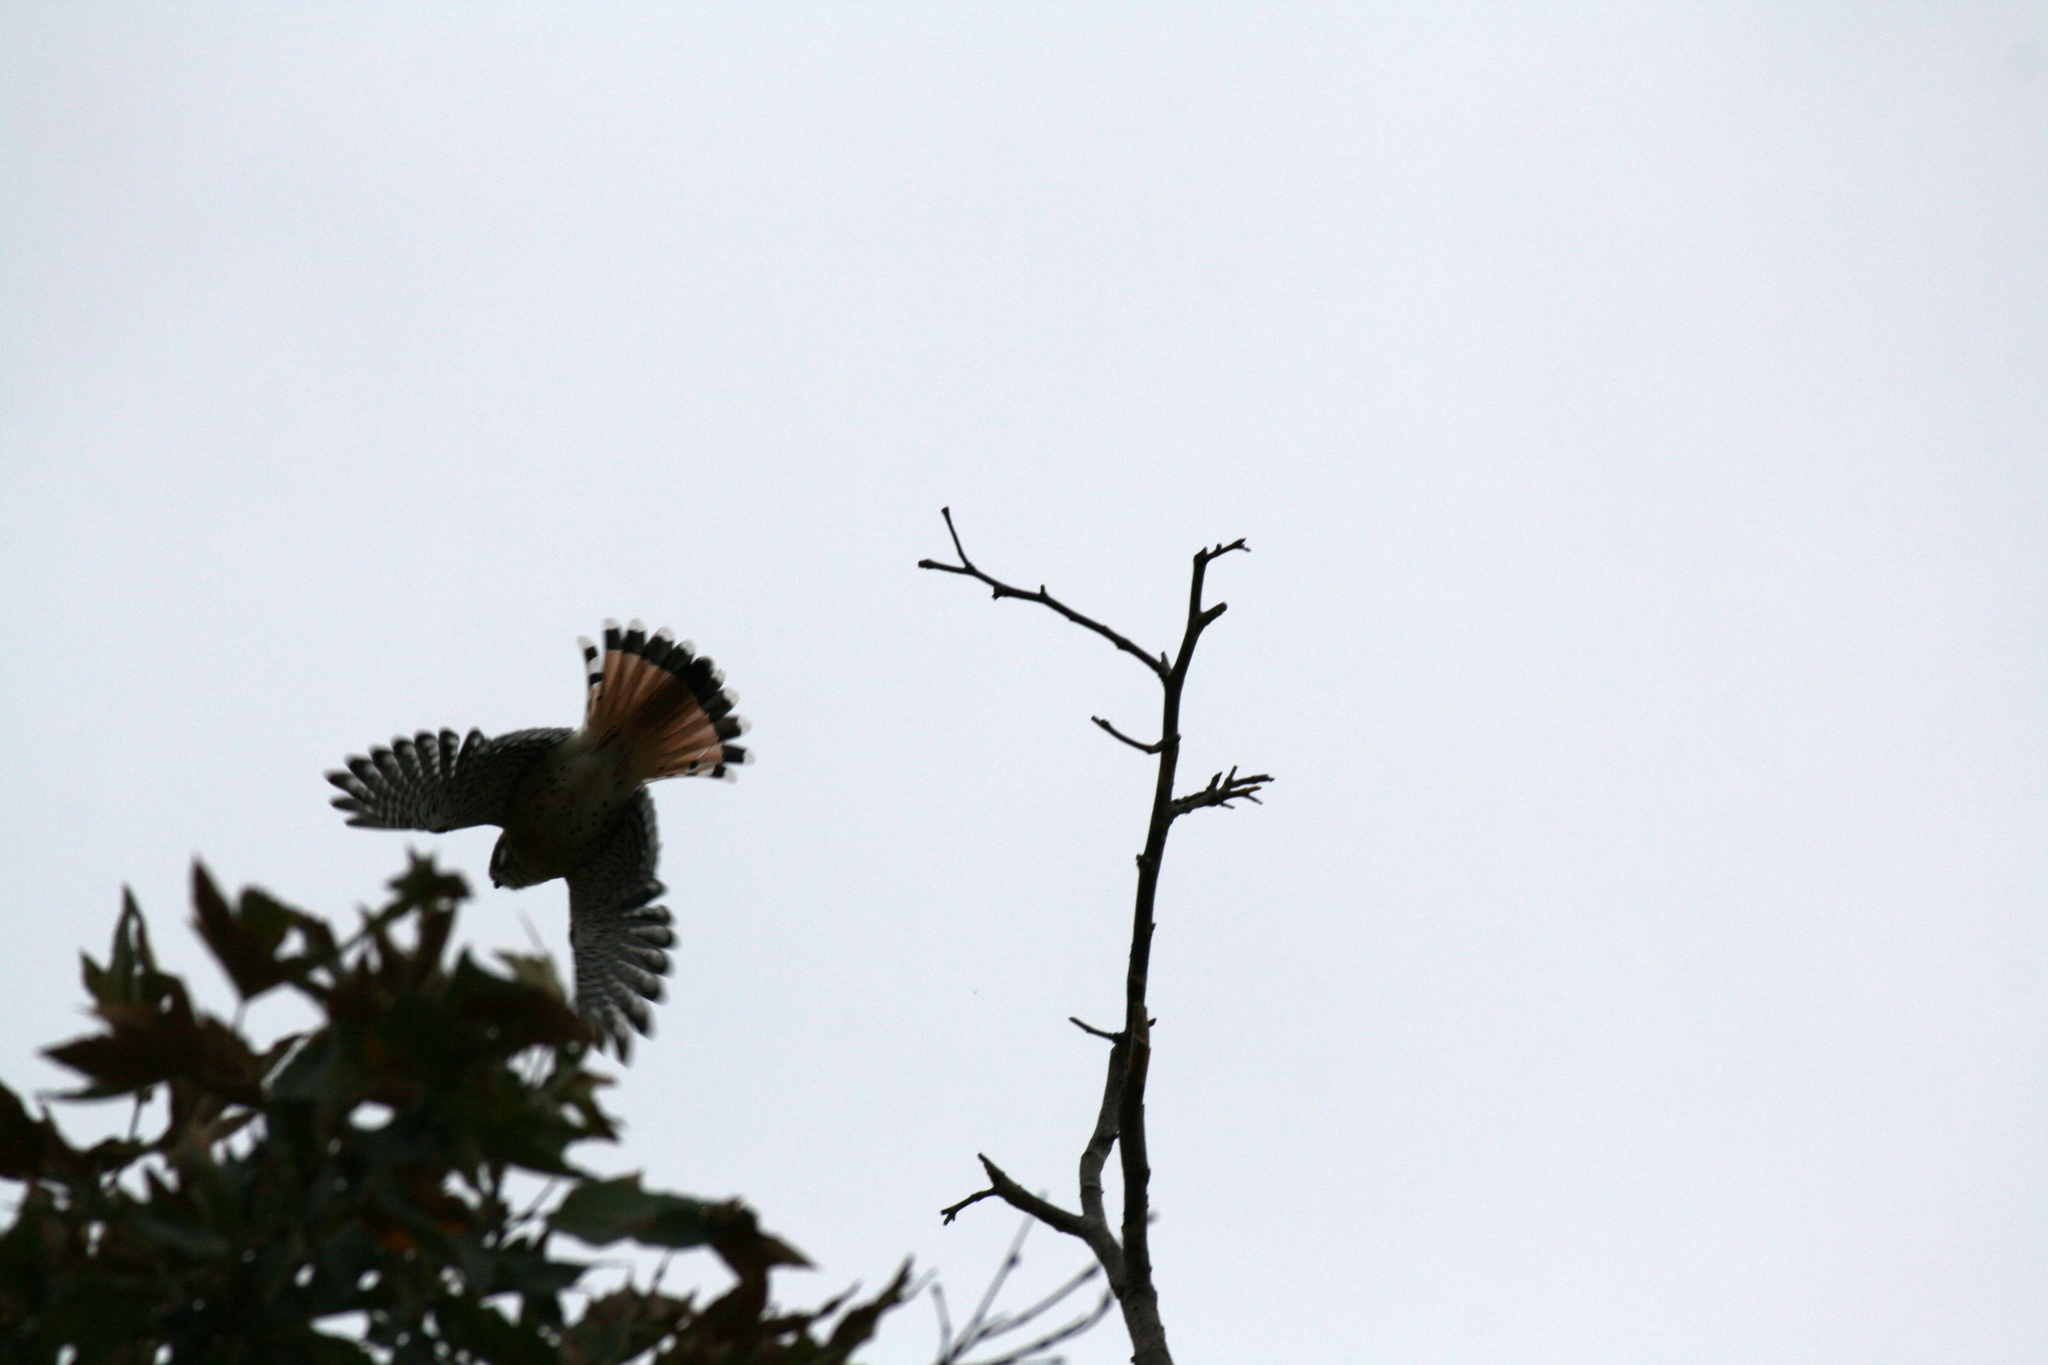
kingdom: Animalia
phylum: Chordata
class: Aves
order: Falconiformes
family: Falconidae
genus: Falco
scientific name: Falco sparverius
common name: American kestrel
